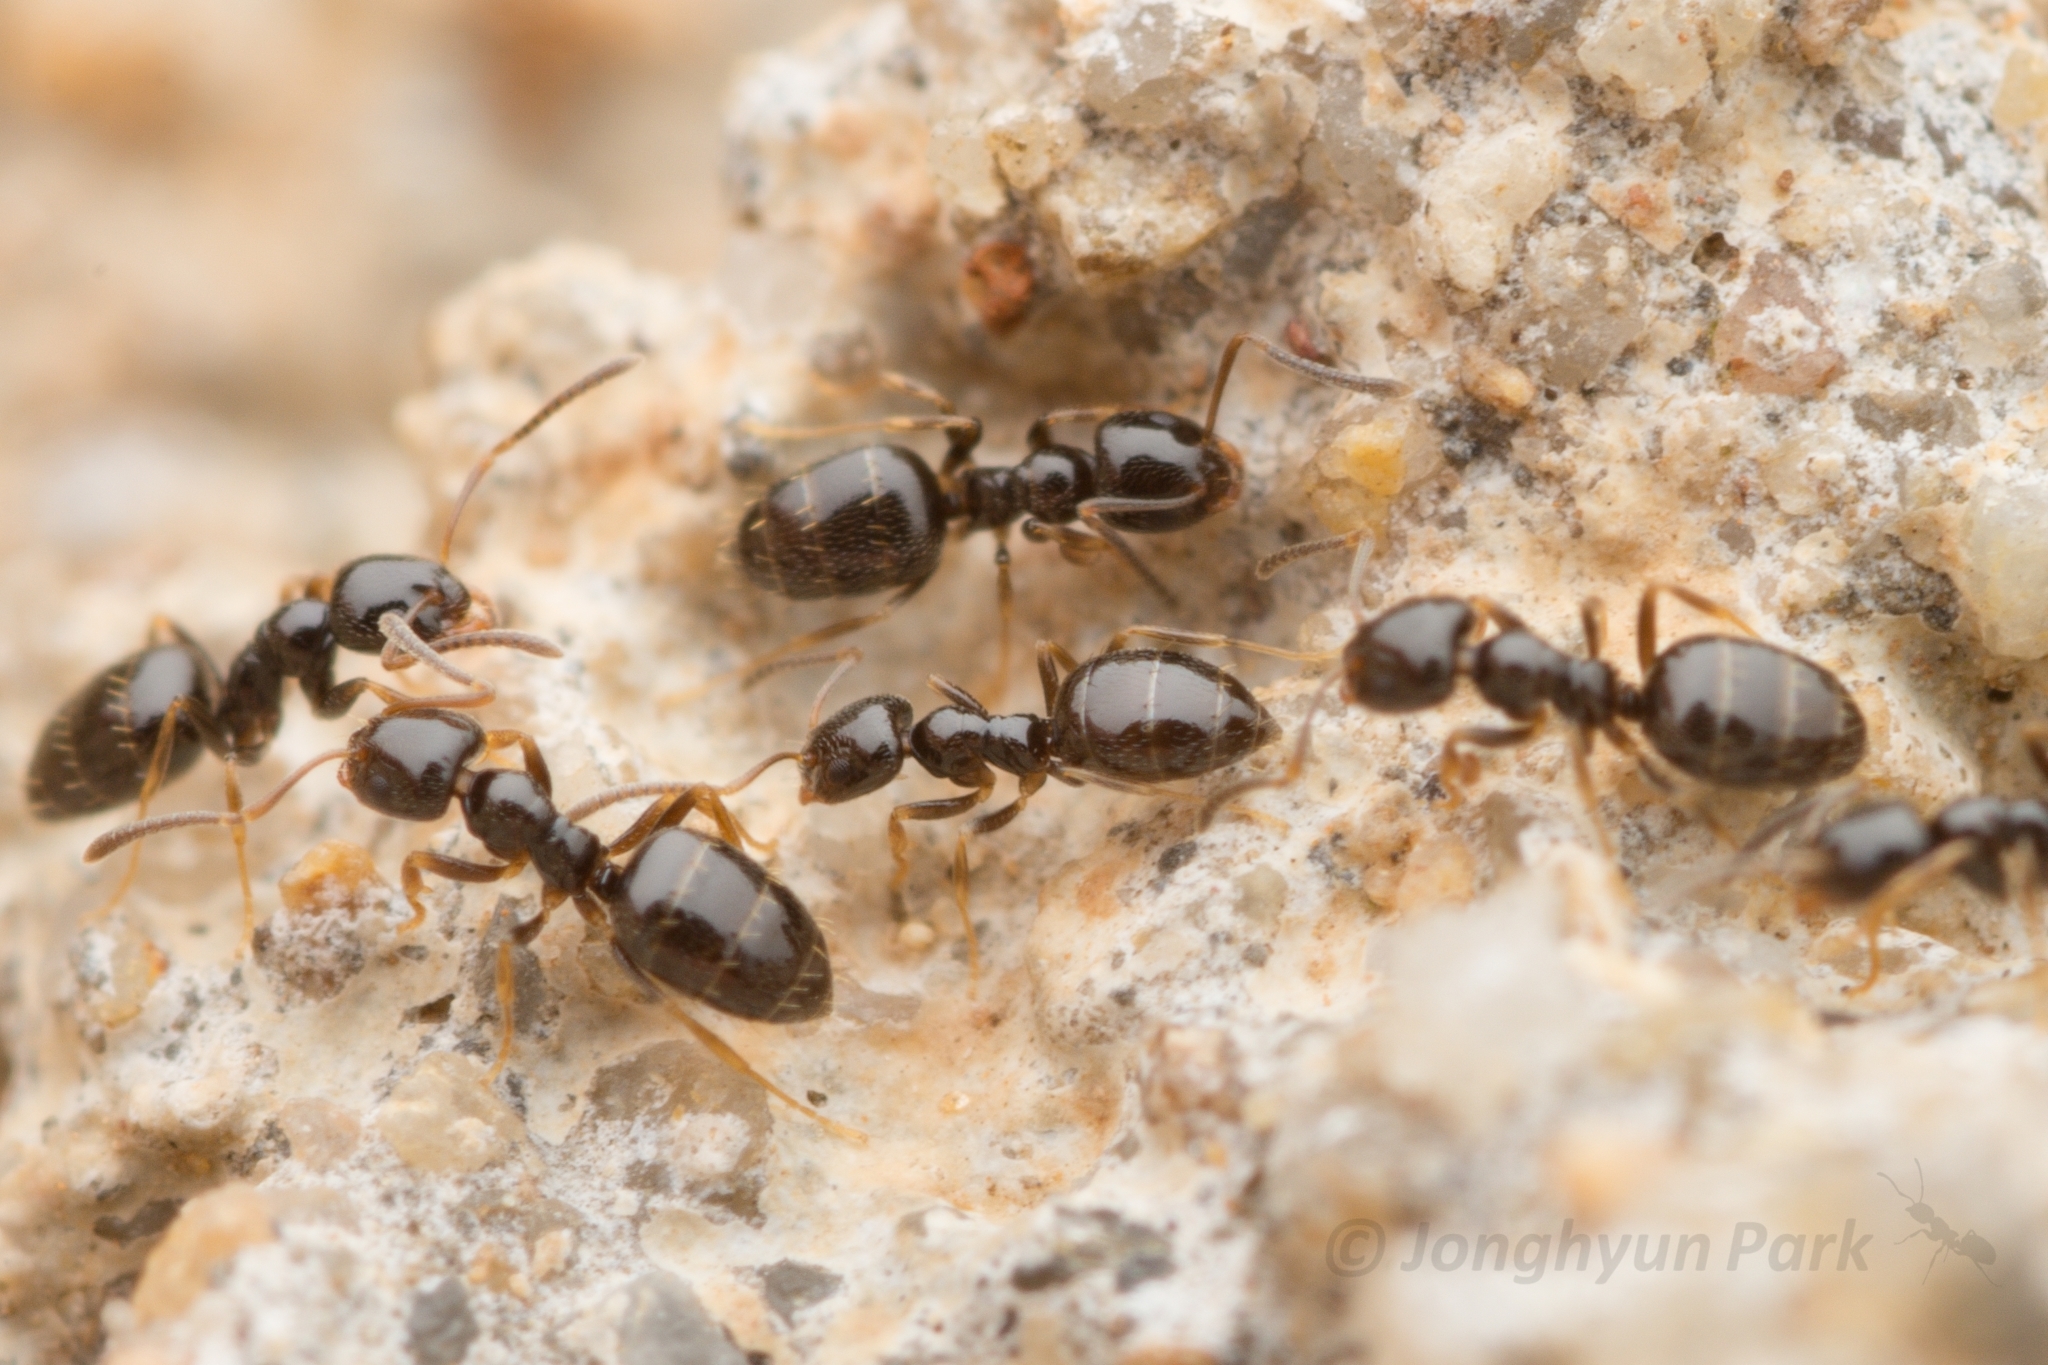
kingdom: Animalia
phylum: Arthropoda
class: Insecta
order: Hymenoptera
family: Formicidae
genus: Plagiolepis
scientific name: Plagiolepis manczshurica
